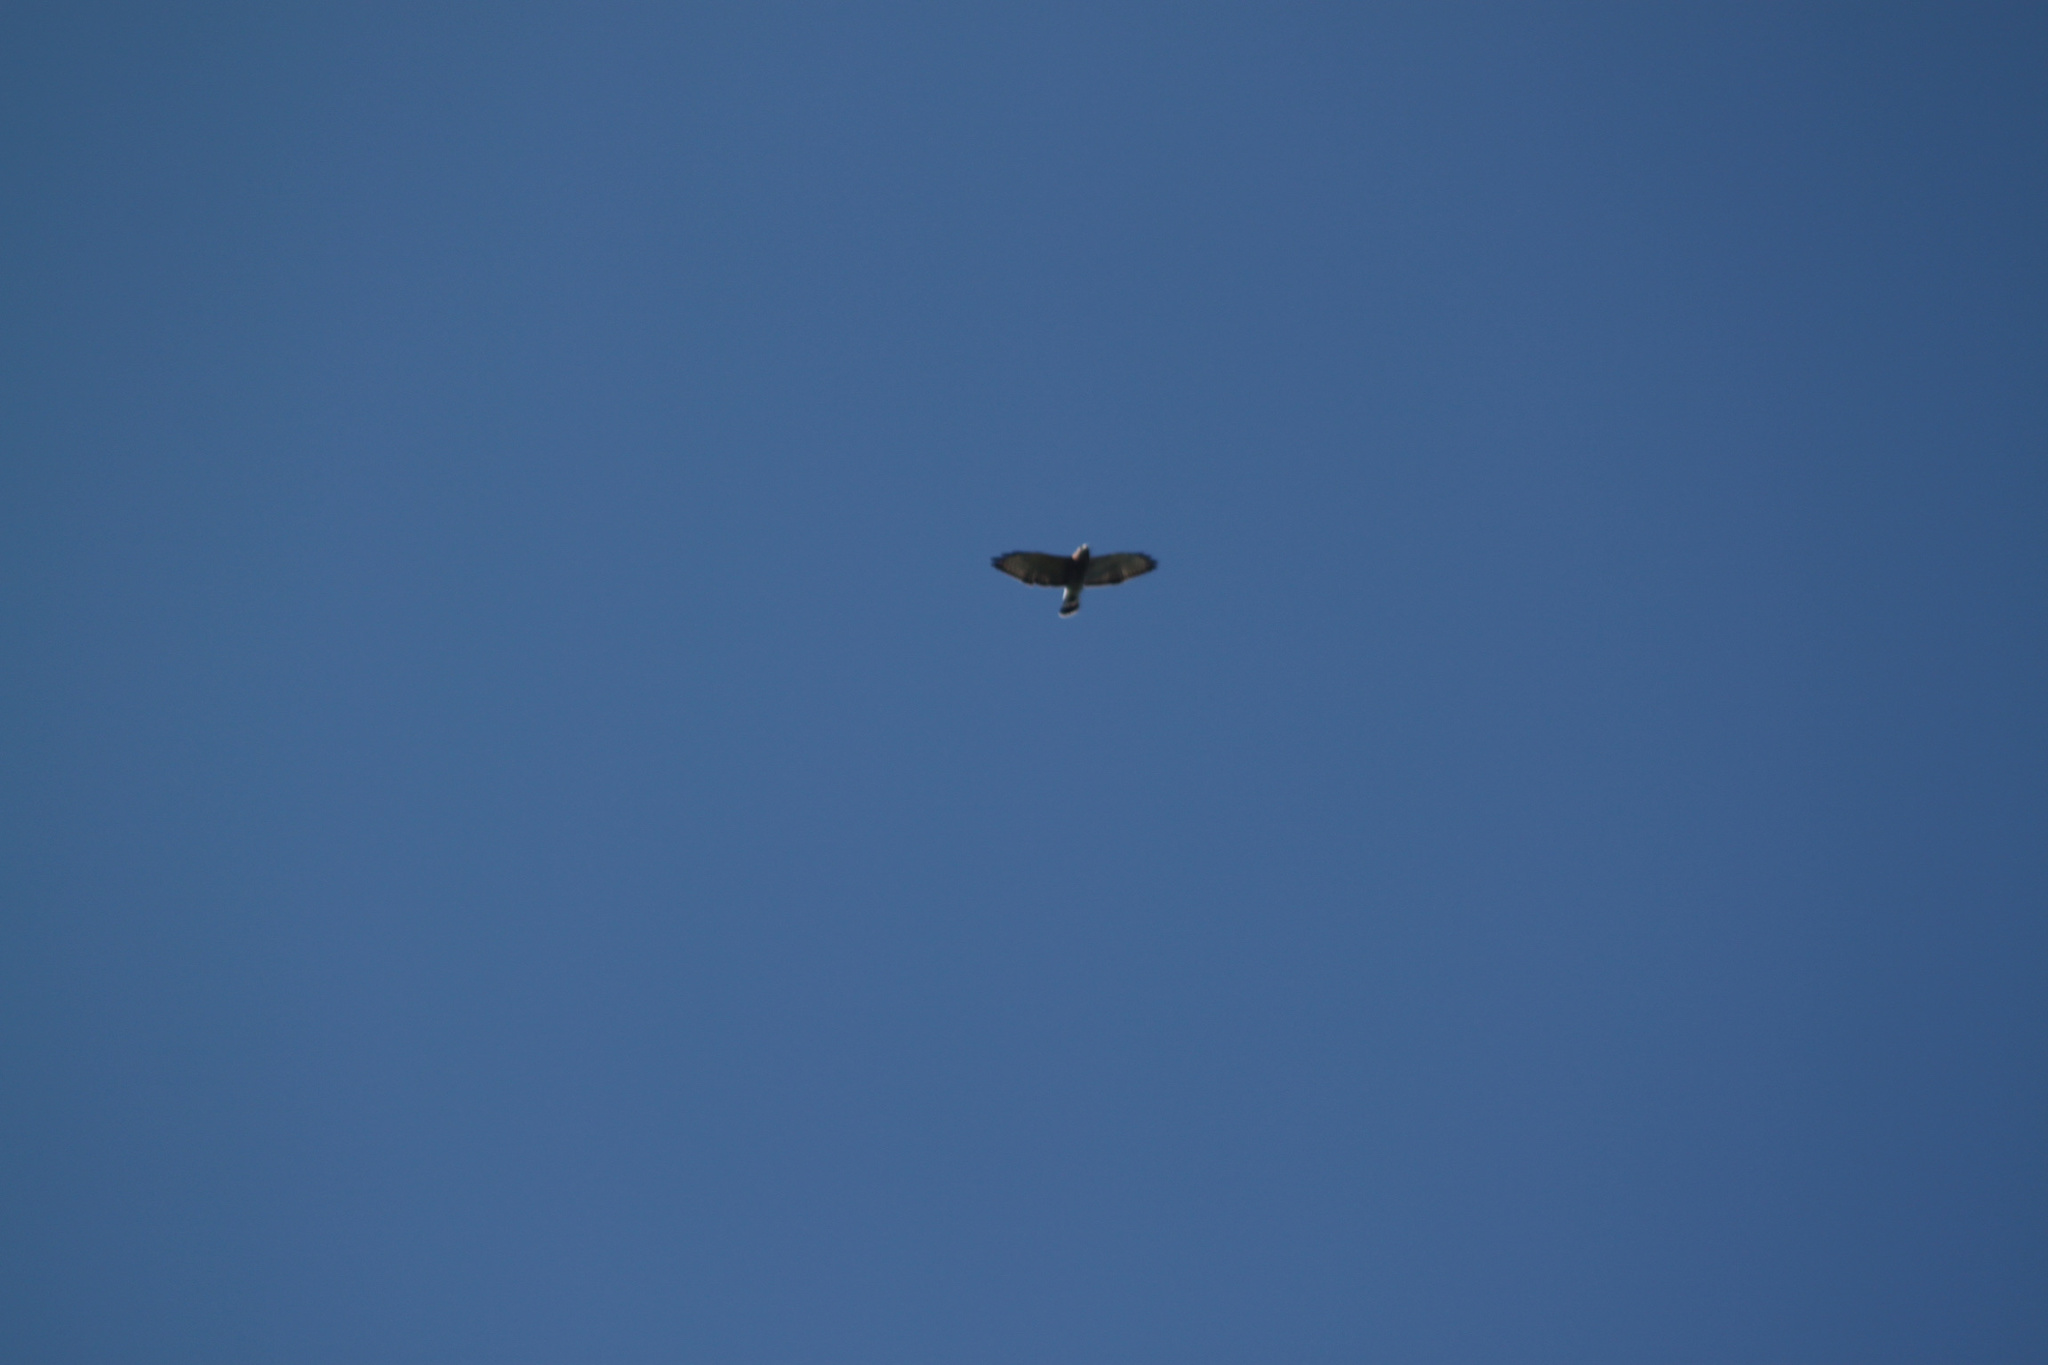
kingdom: Animalia
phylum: Chordata
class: Aves
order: Accipitriformes
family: Accipitridae
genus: Buteo
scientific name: Buteo platypterus
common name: Broad-winged hawk
